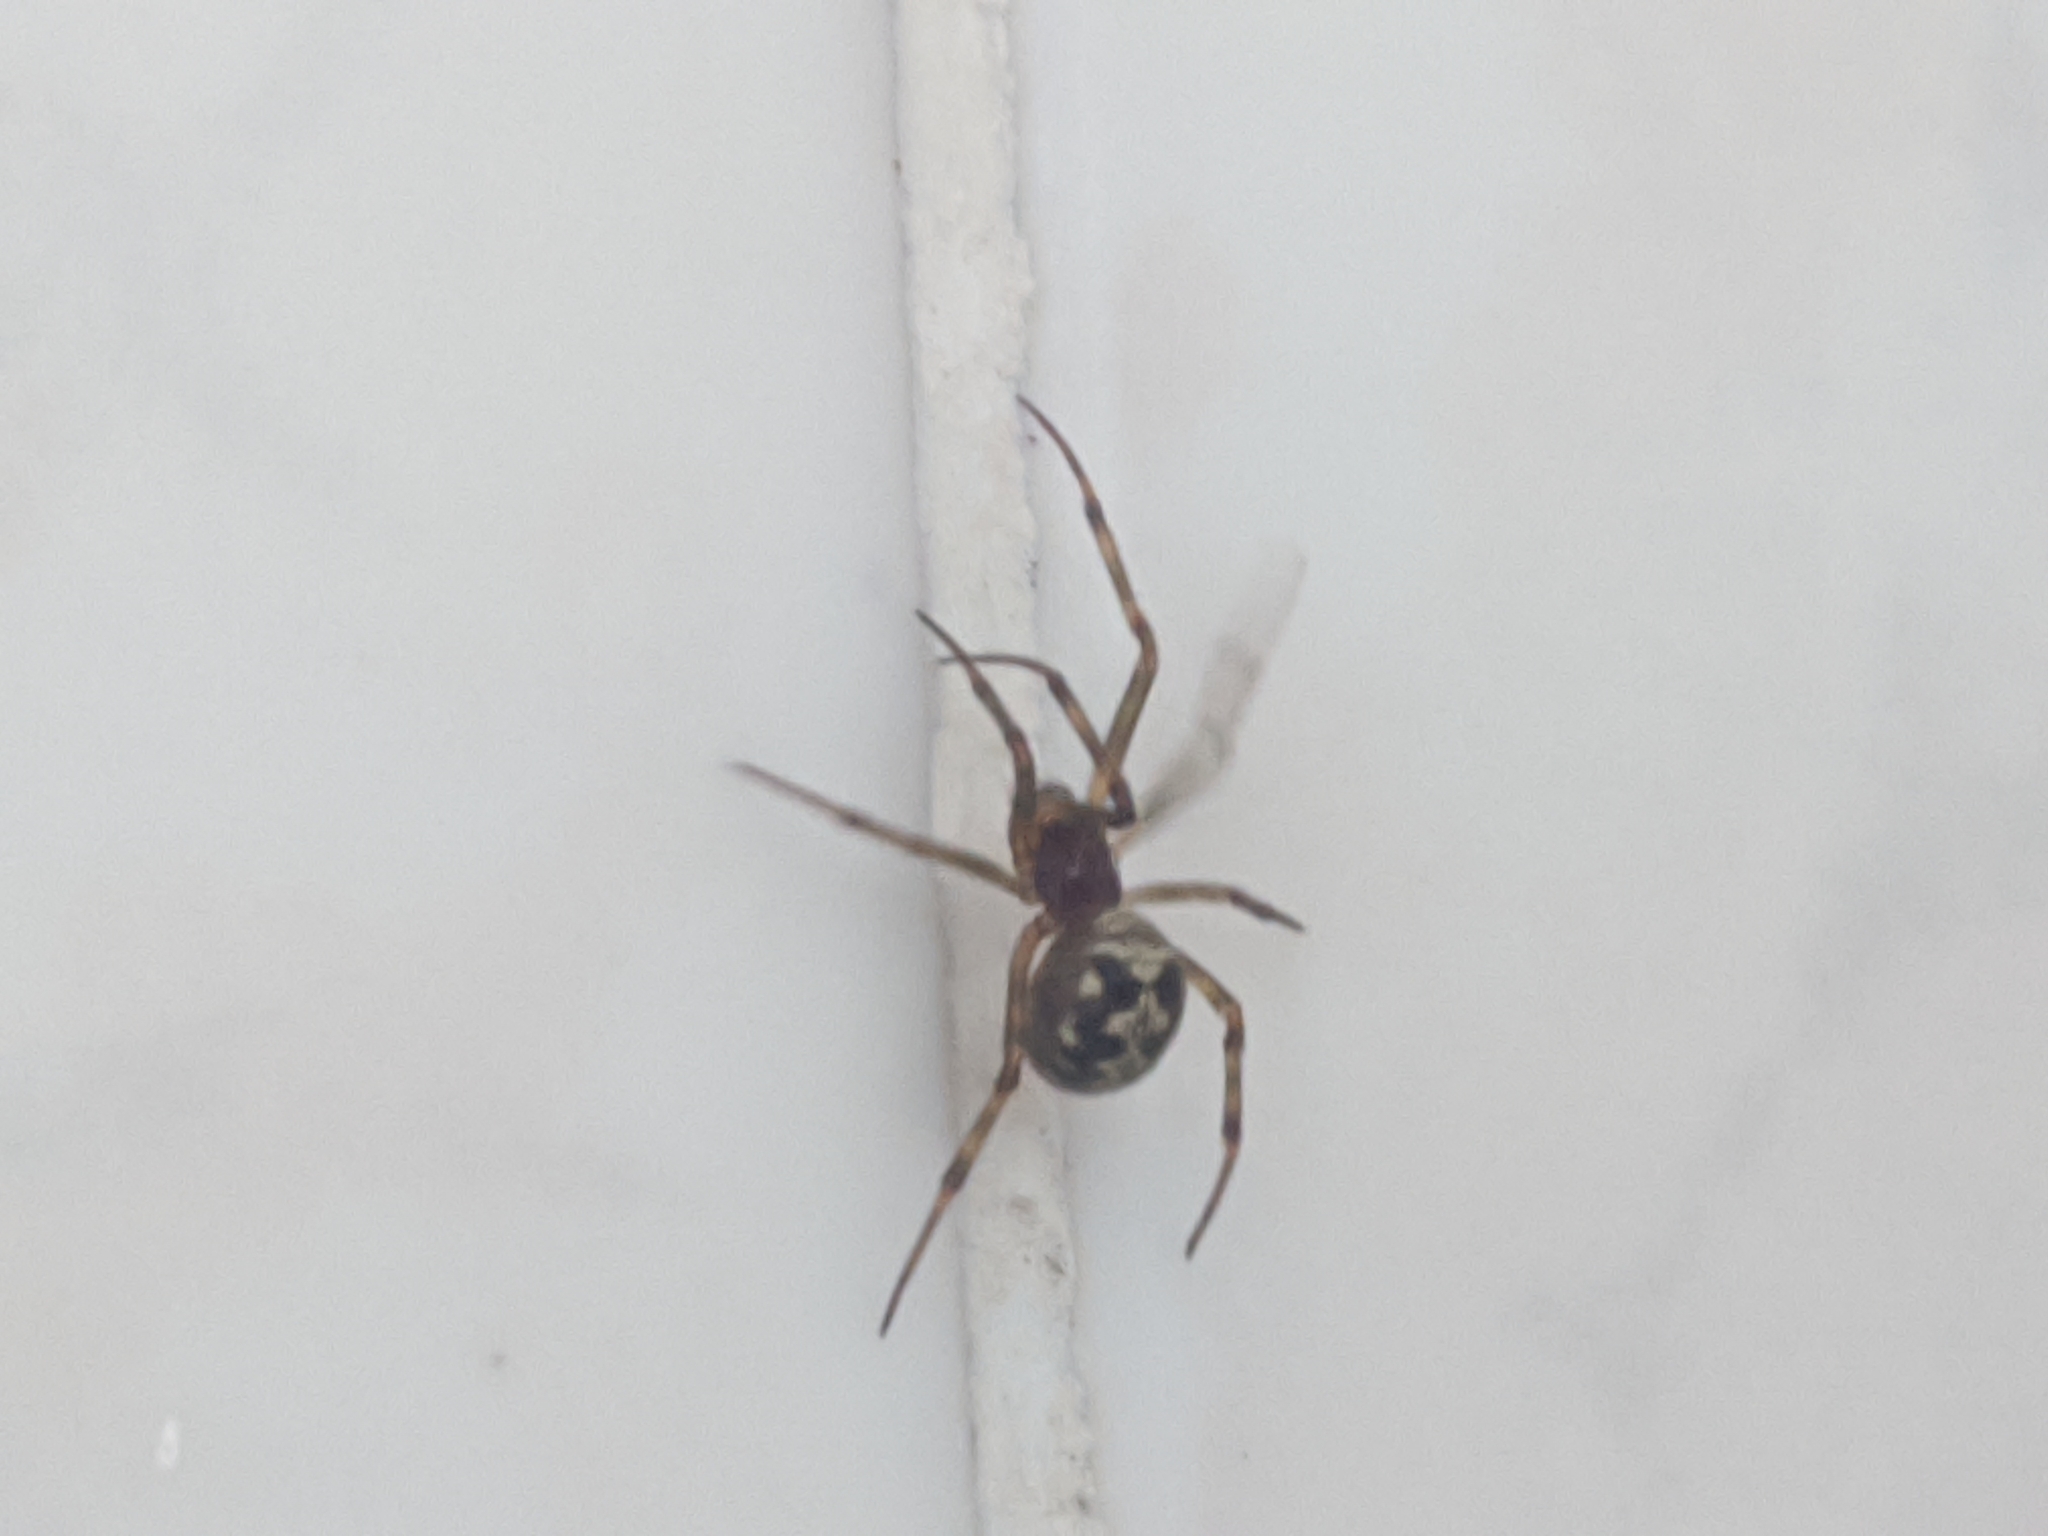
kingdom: Animalia
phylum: Arthropoda
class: Arachnida
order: Araneae
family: Theridiidae
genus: Steatoda
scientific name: Steatoda triangulosa
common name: Triangulate bud spider
